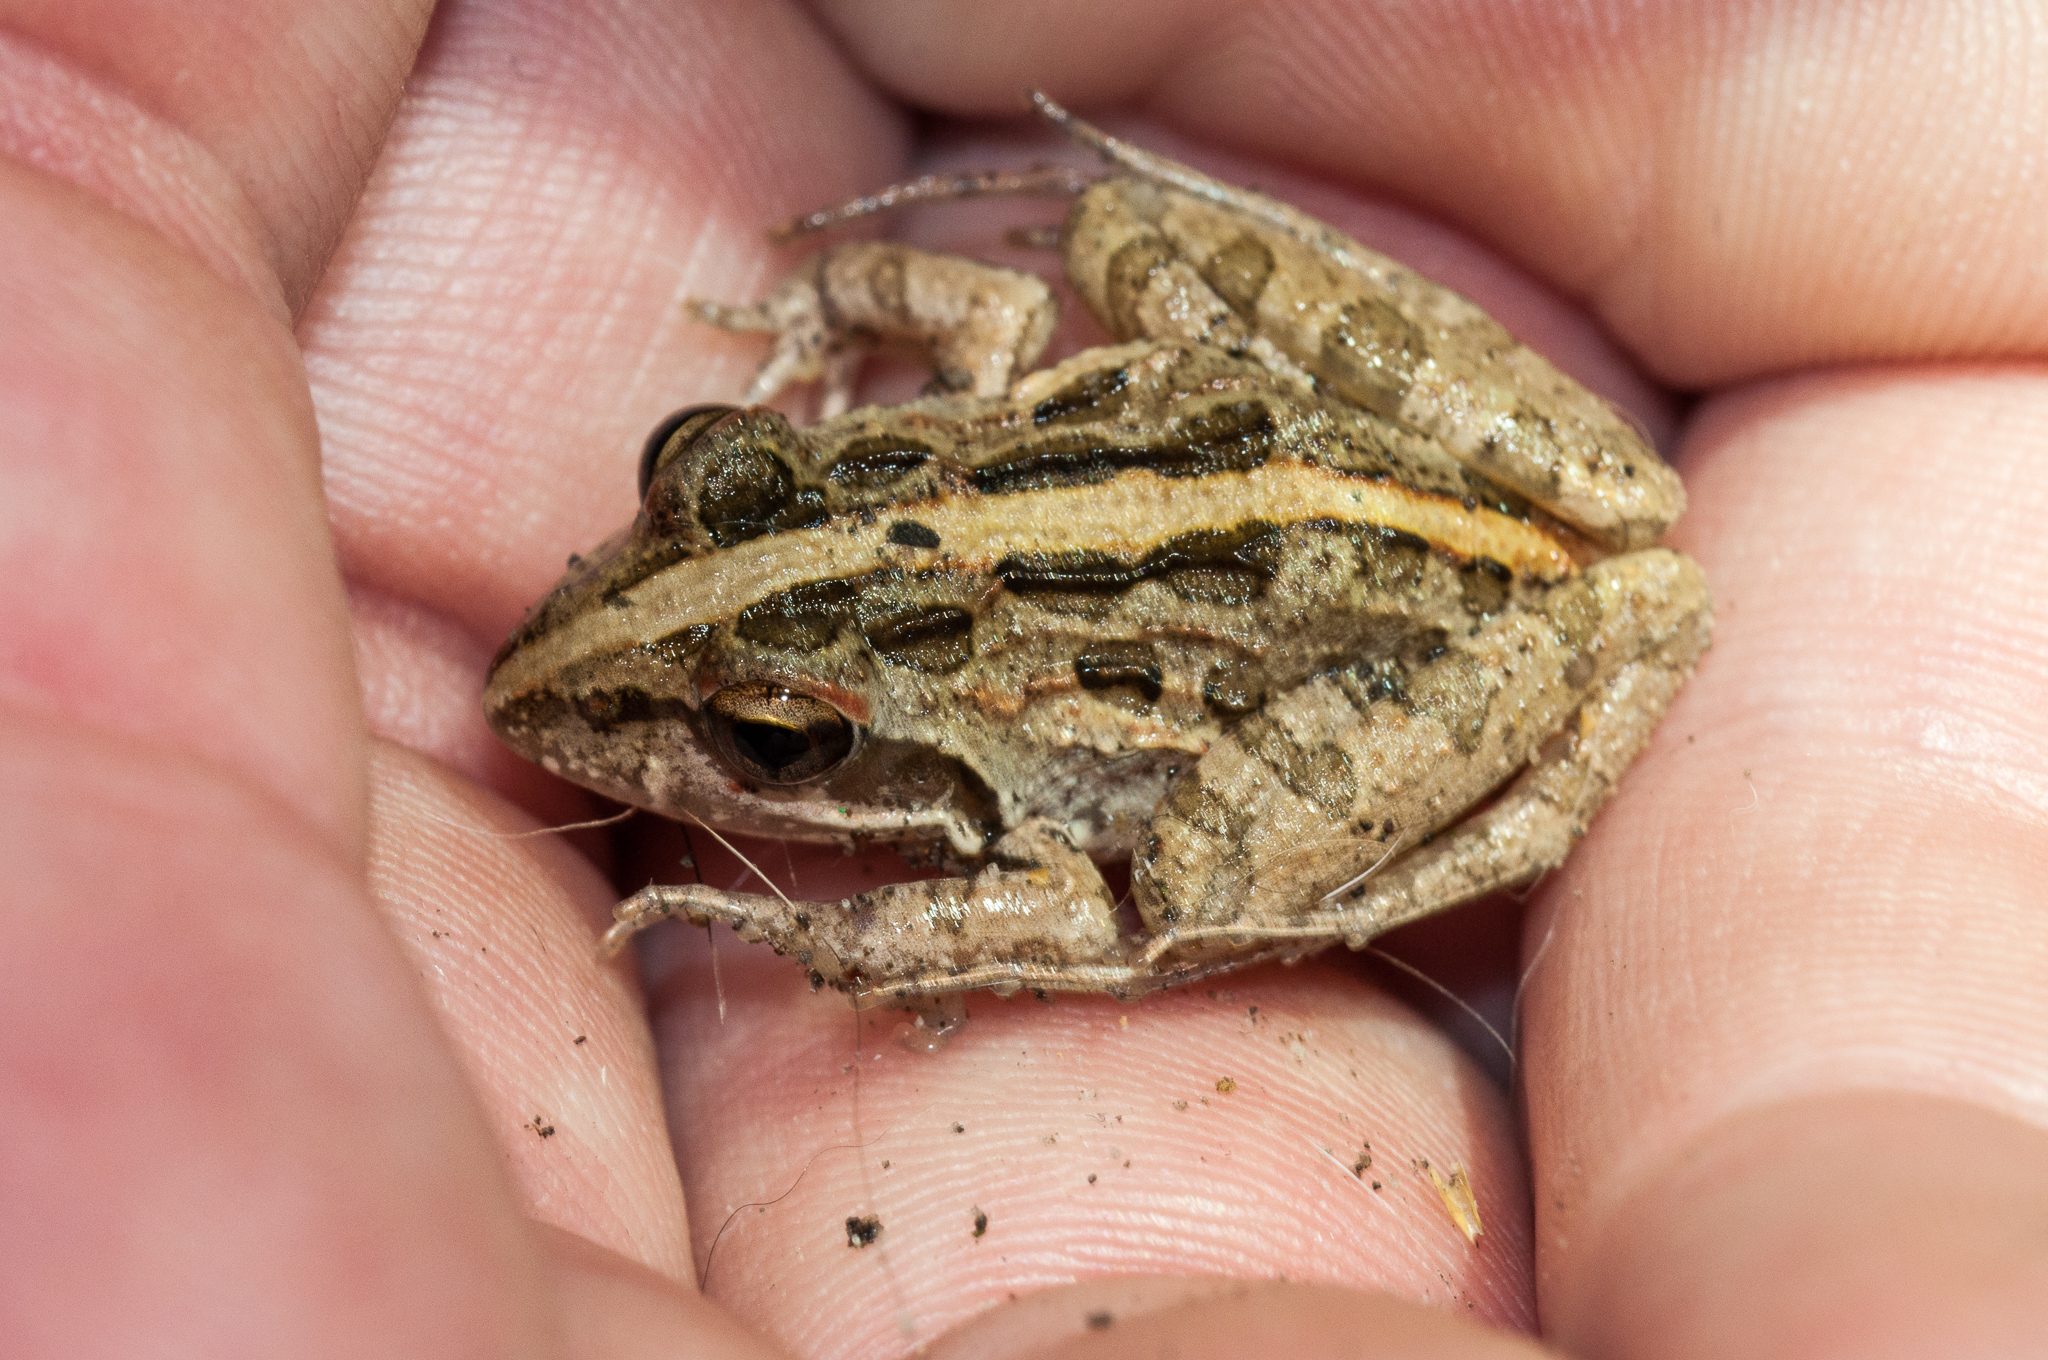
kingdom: Animalia
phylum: Chordata
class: Amphibia
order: Anura
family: Pyxicephalidae
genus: Strongylopus
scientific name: Strongylopus grayii
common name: Gray's stream frog
